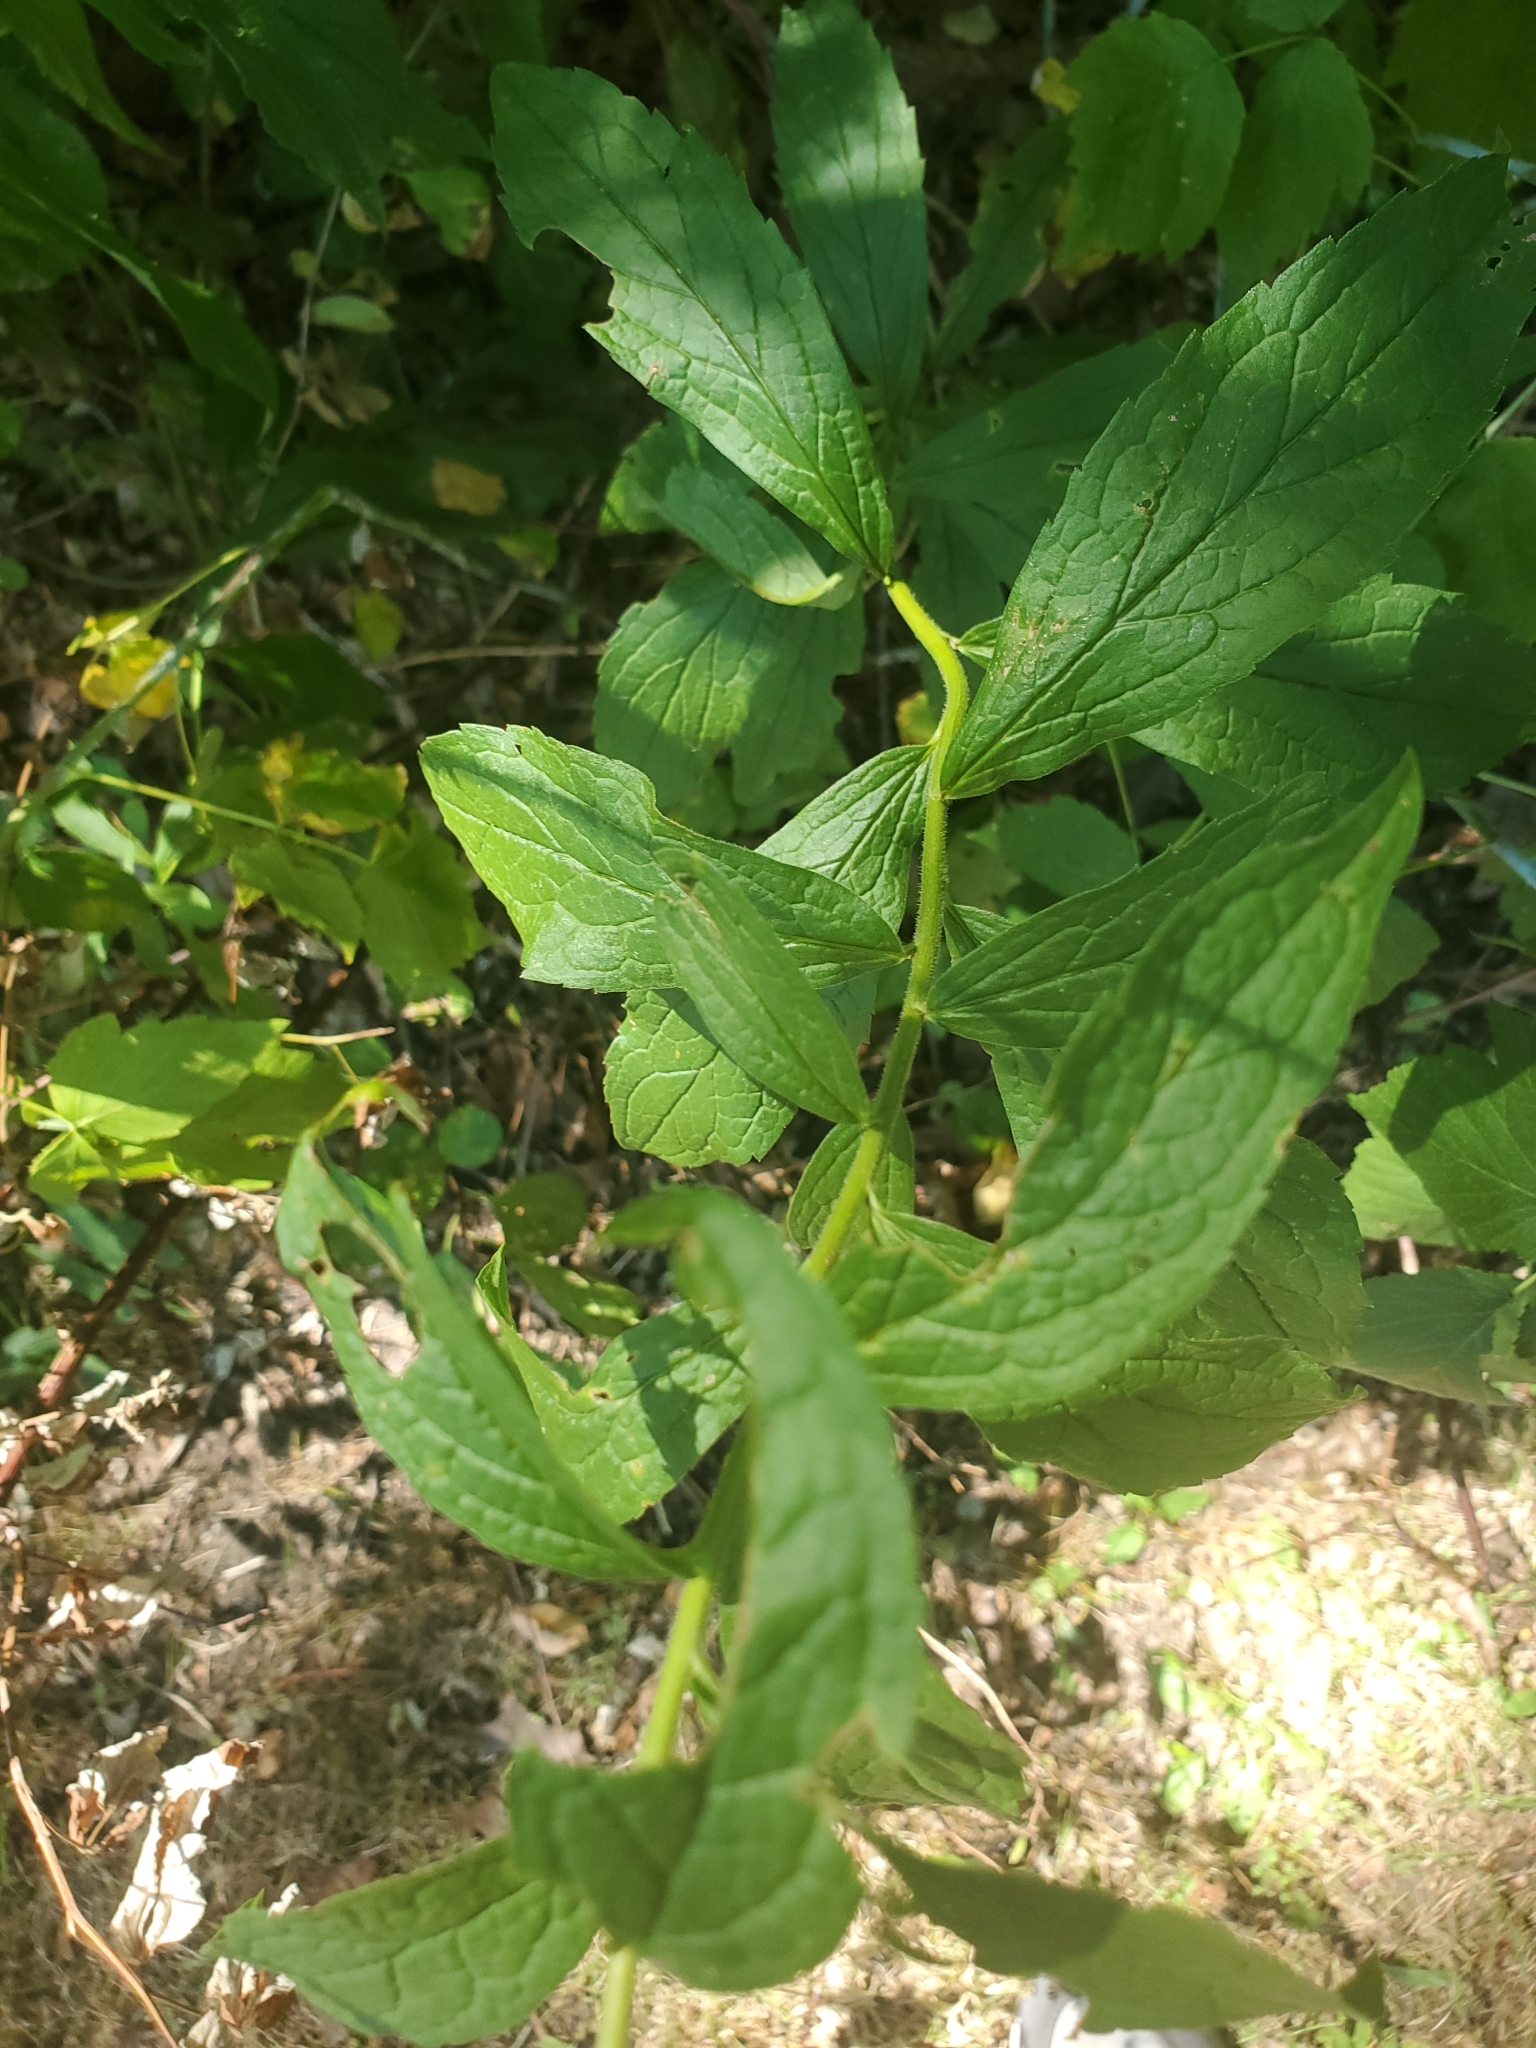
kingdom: Plantae
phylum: Tracheophyta
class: Magnoliopsida
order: Asterales
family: Asteraceae
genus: Solidago
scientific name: Solidago rugosa
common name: Rough-stemmed goldenrod
